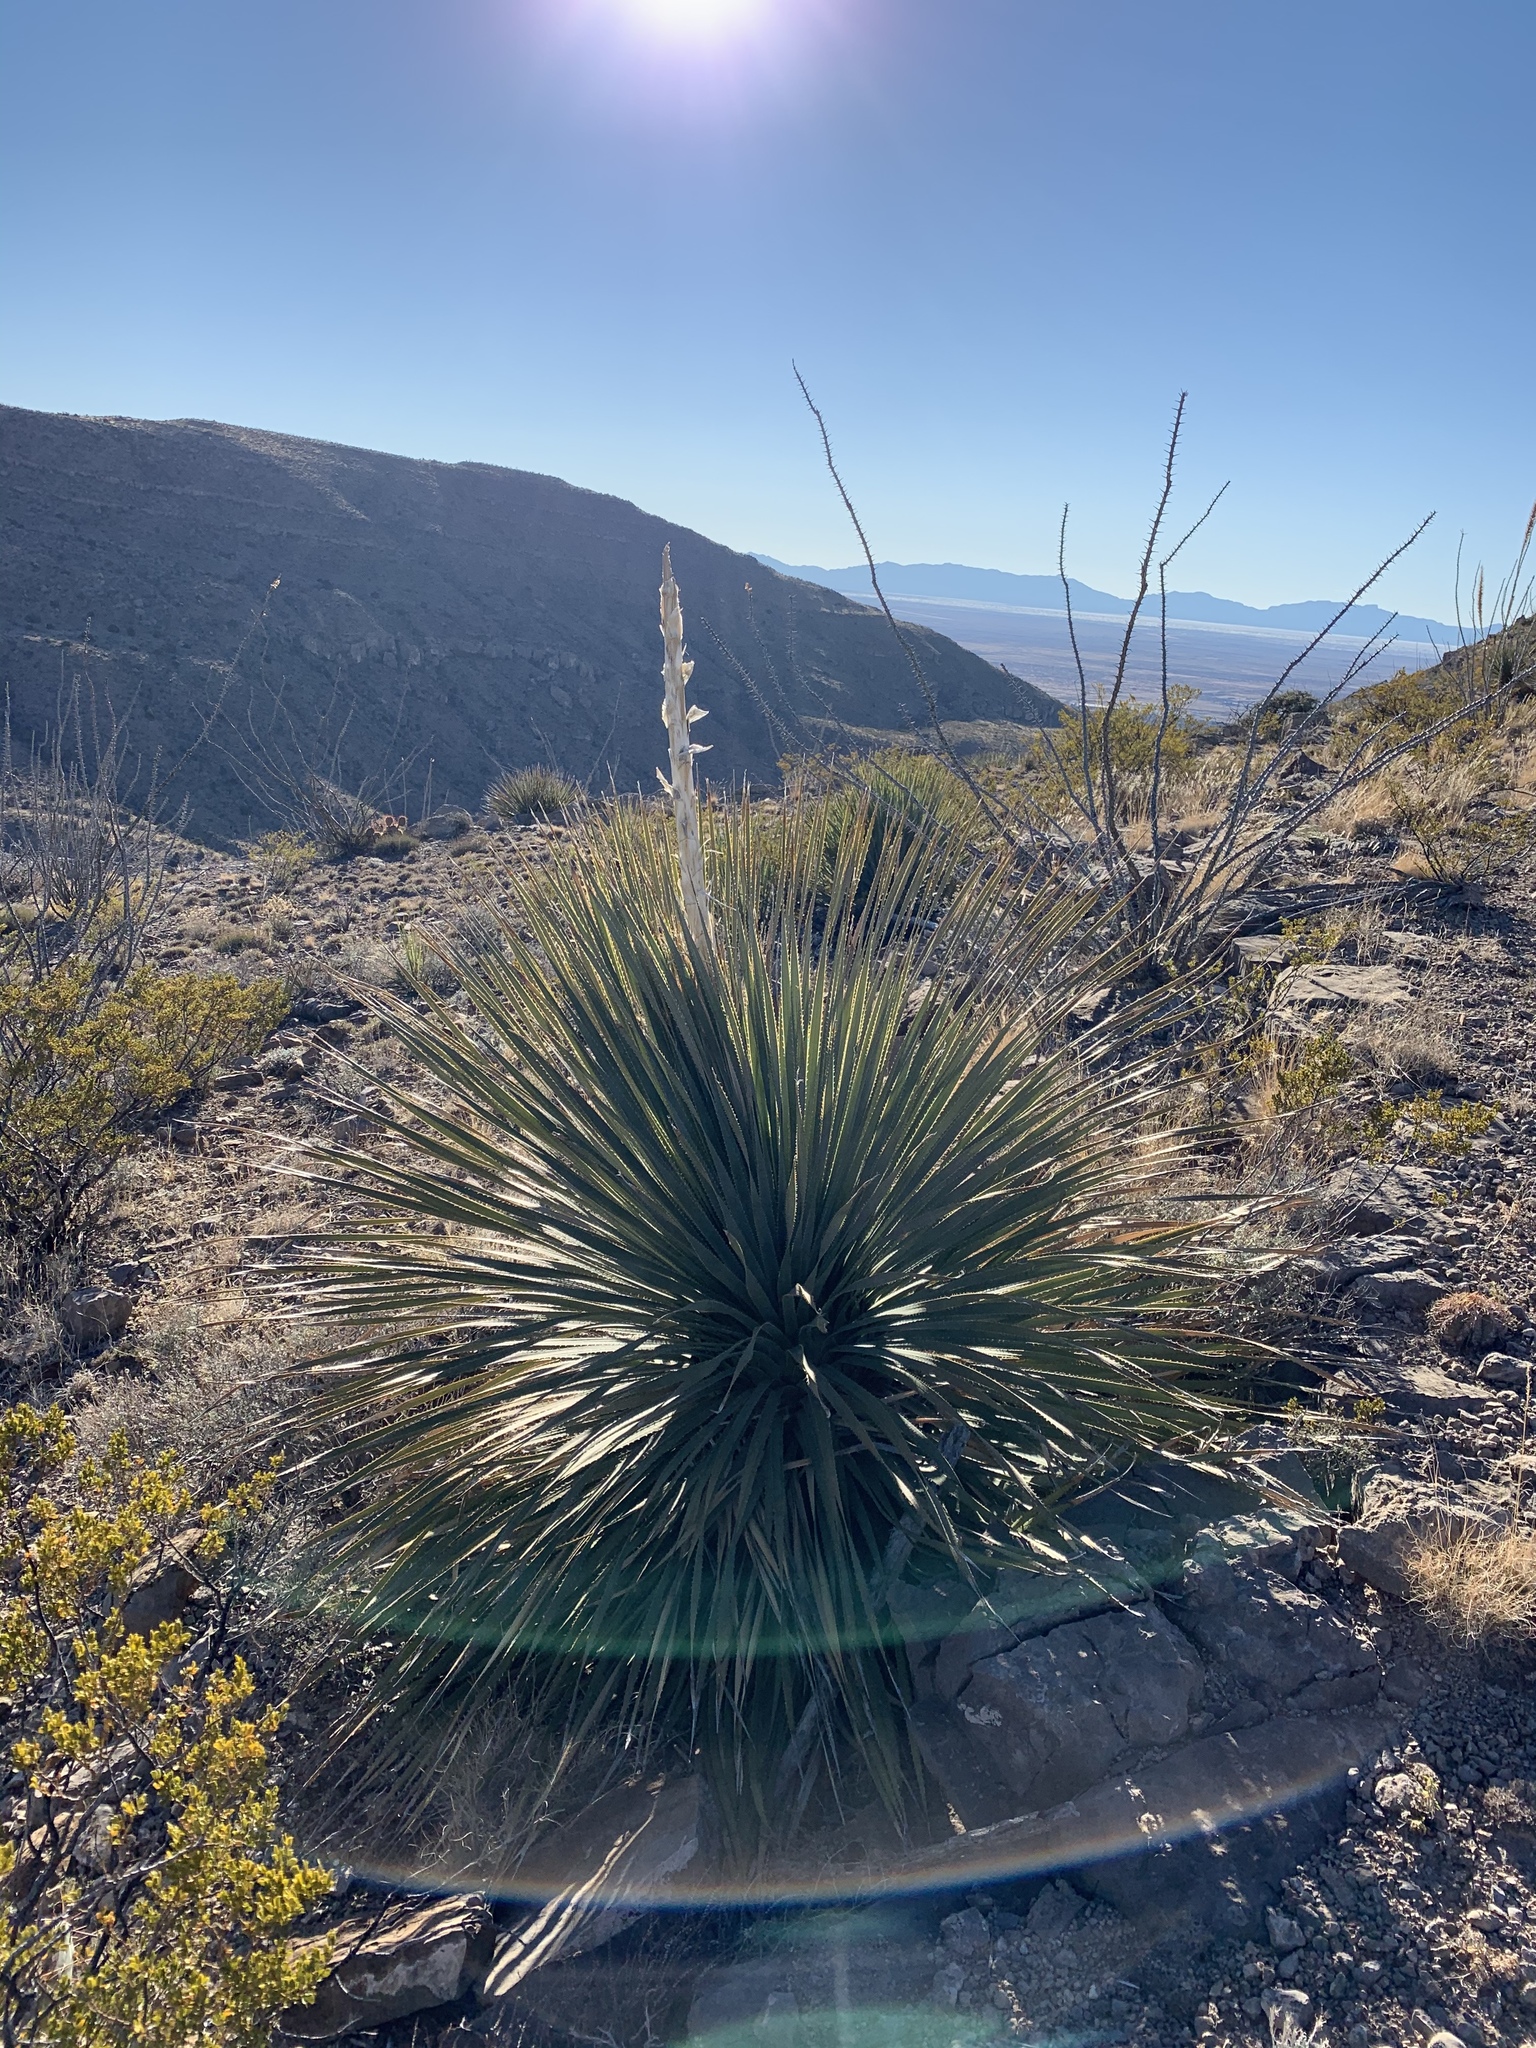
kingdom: Plantae
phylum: Tracheophyta
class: Liliopsida
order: Asparagales
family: Asparagaceae
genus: Dasylirion
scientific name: Dasylirion wheeleri
